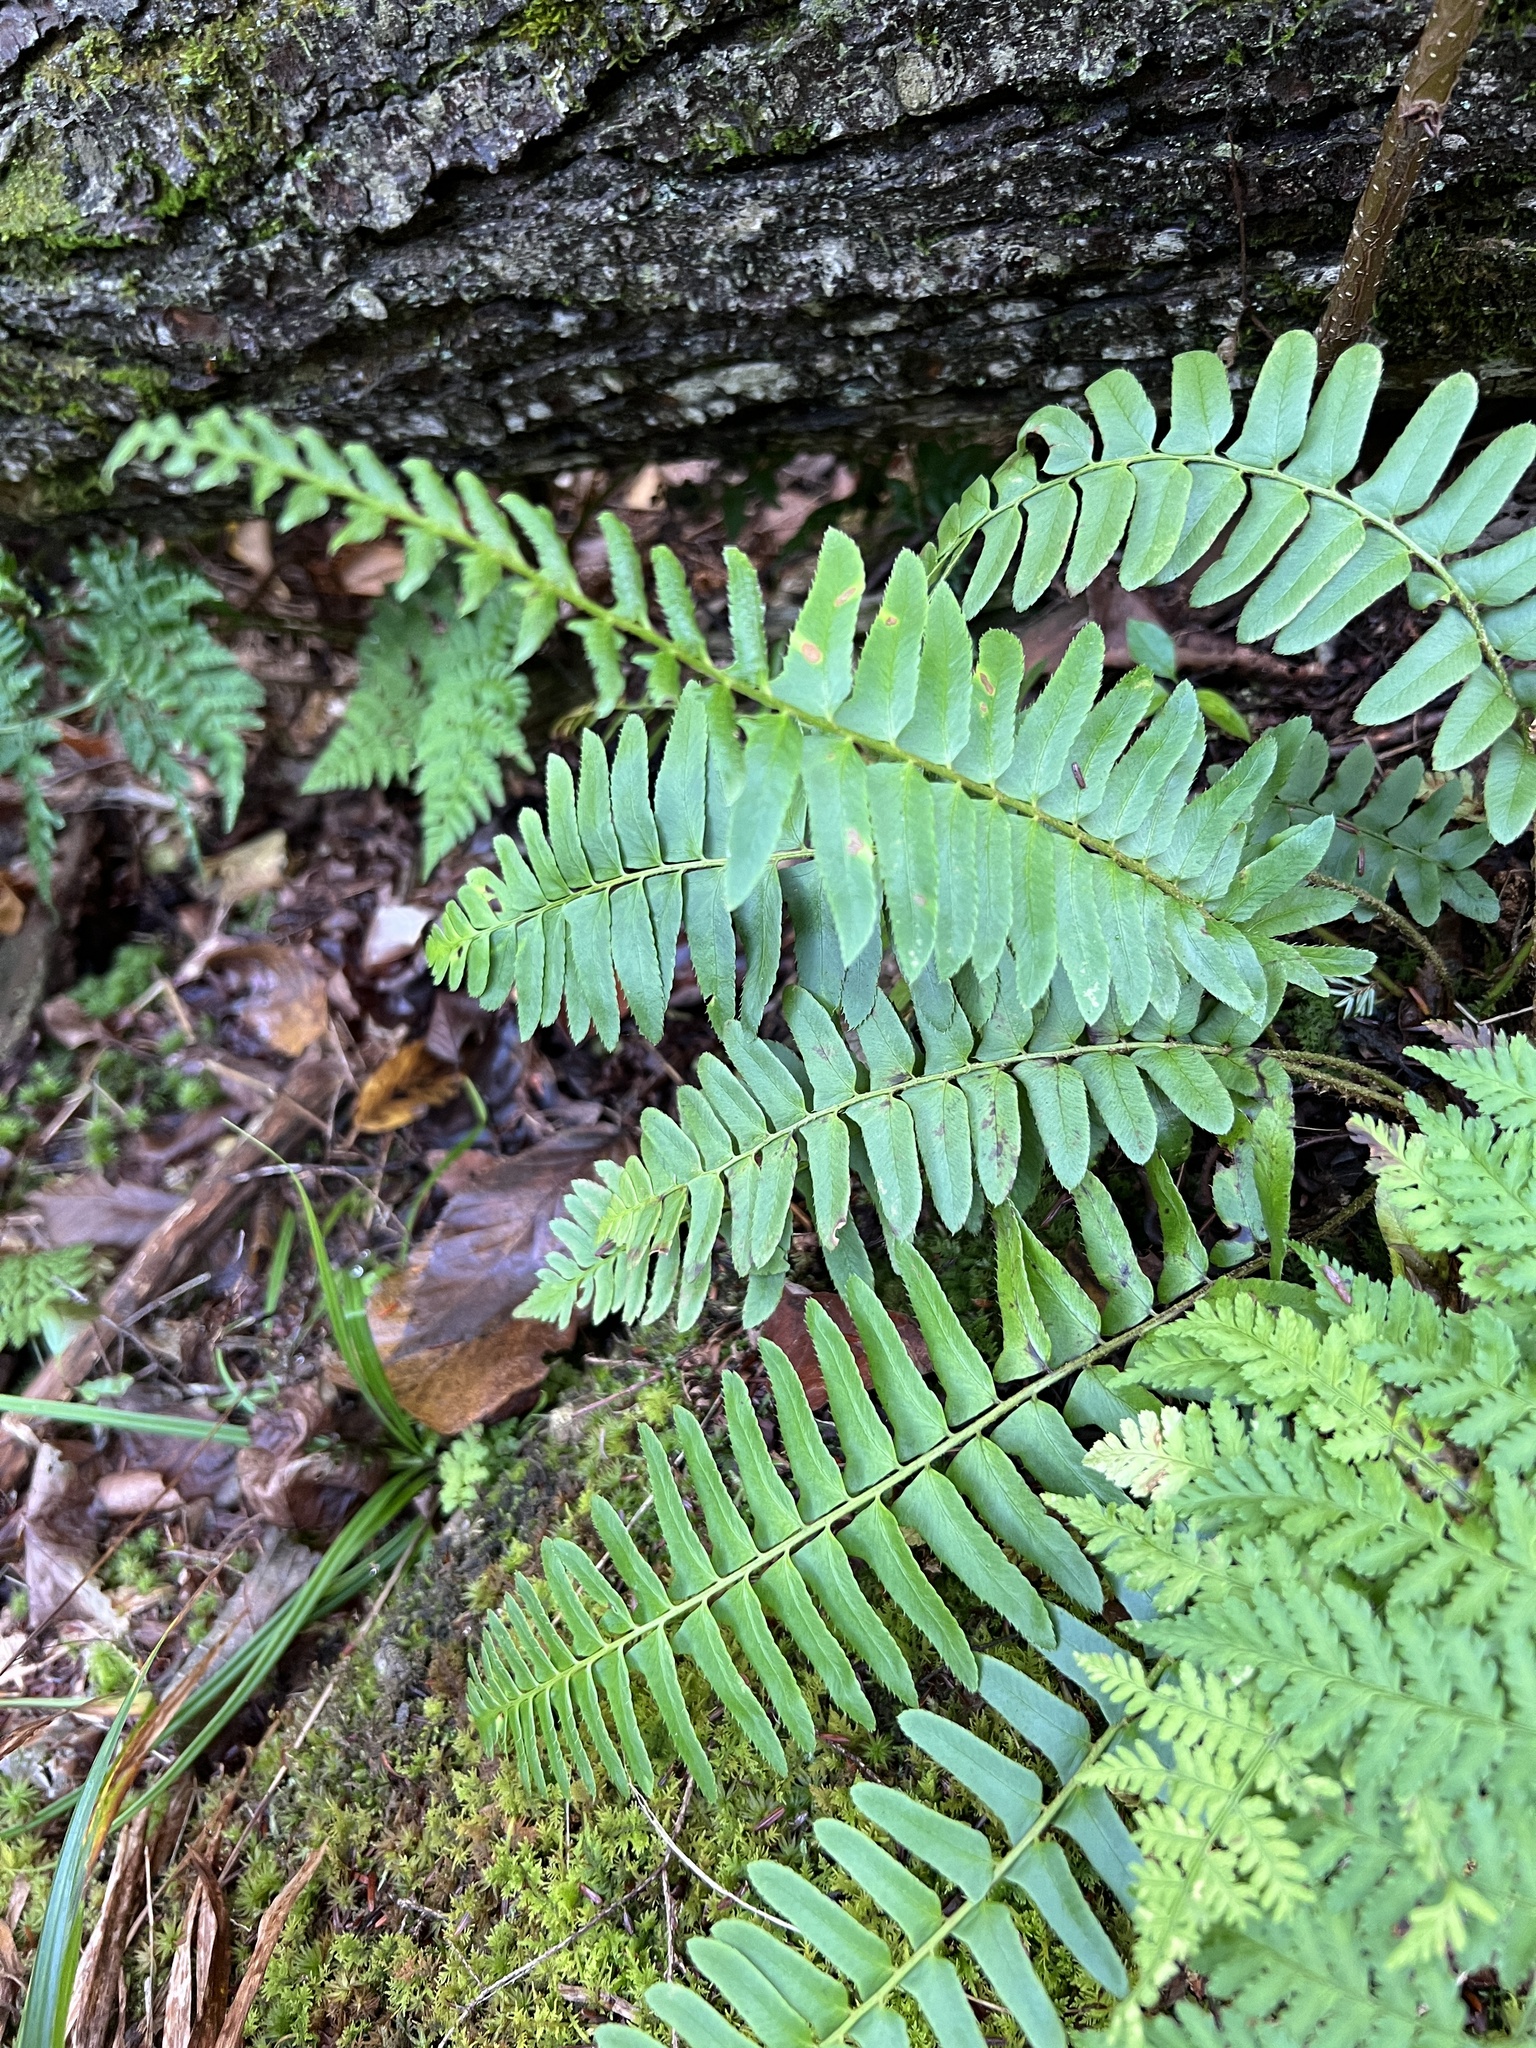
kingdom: Plantae
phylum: Tracheophyta
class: Polypodiopsida
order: Polypodiales
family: Dryopteridaceae
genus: Polystichum
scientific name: Polystichum acrostichoides
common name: Christmas fern
